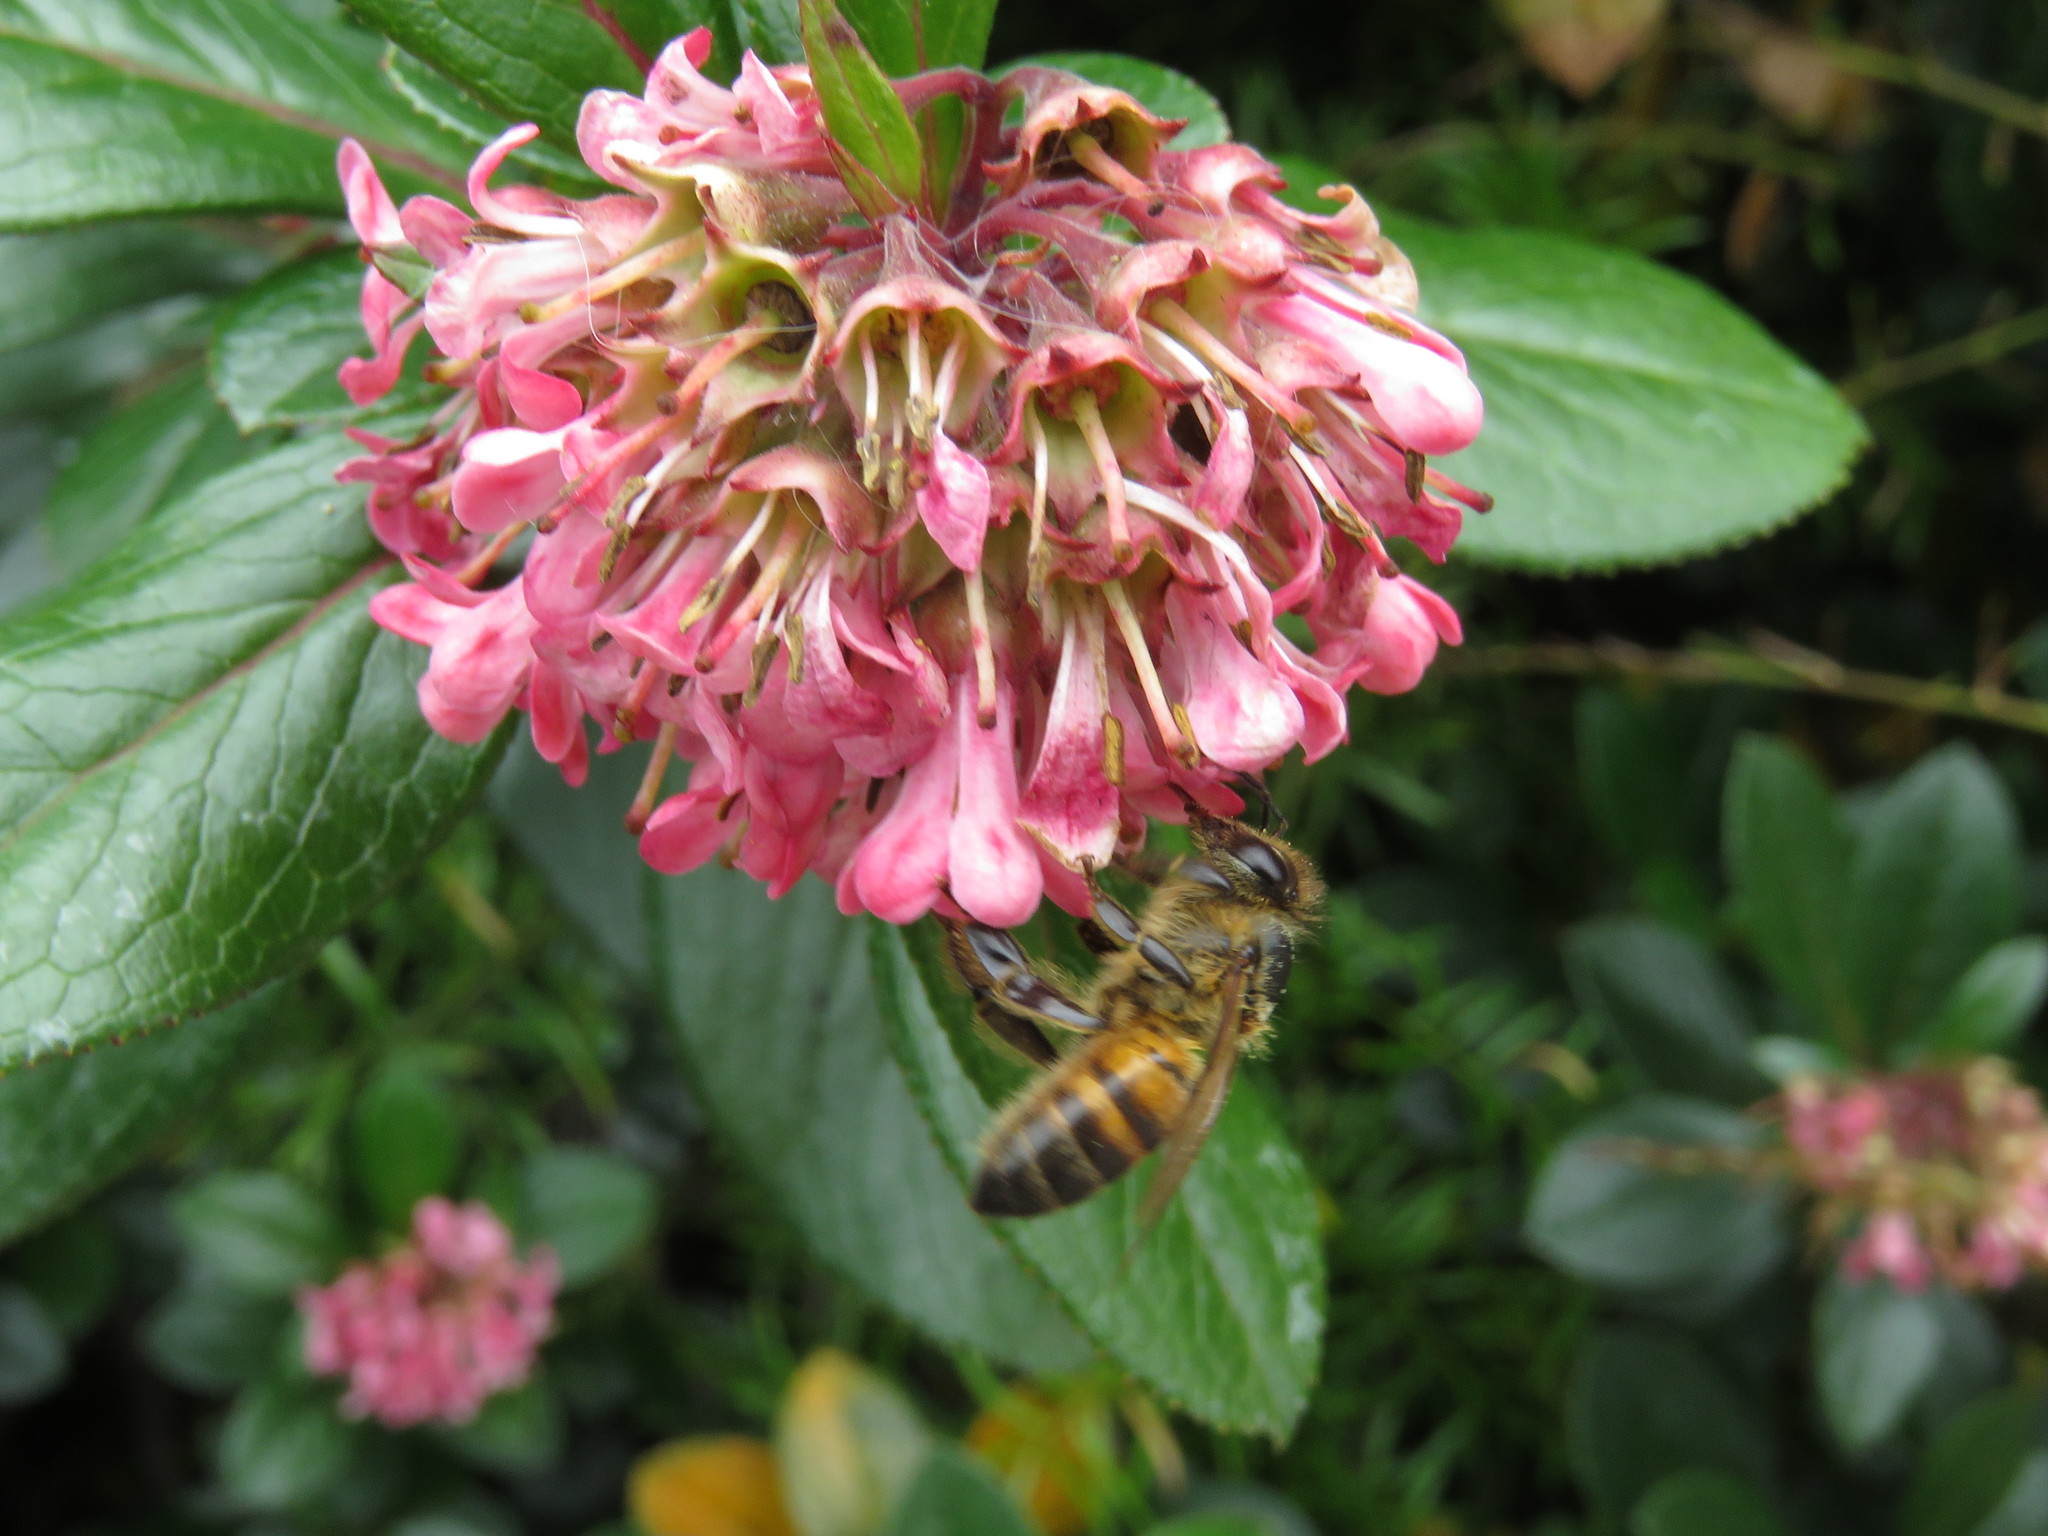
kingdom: Animalia
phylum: Arthropoda
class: Insecta
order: Hymenoptera
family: Apidae
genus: Apis
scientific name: Apis mellifera
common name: Honey bee
